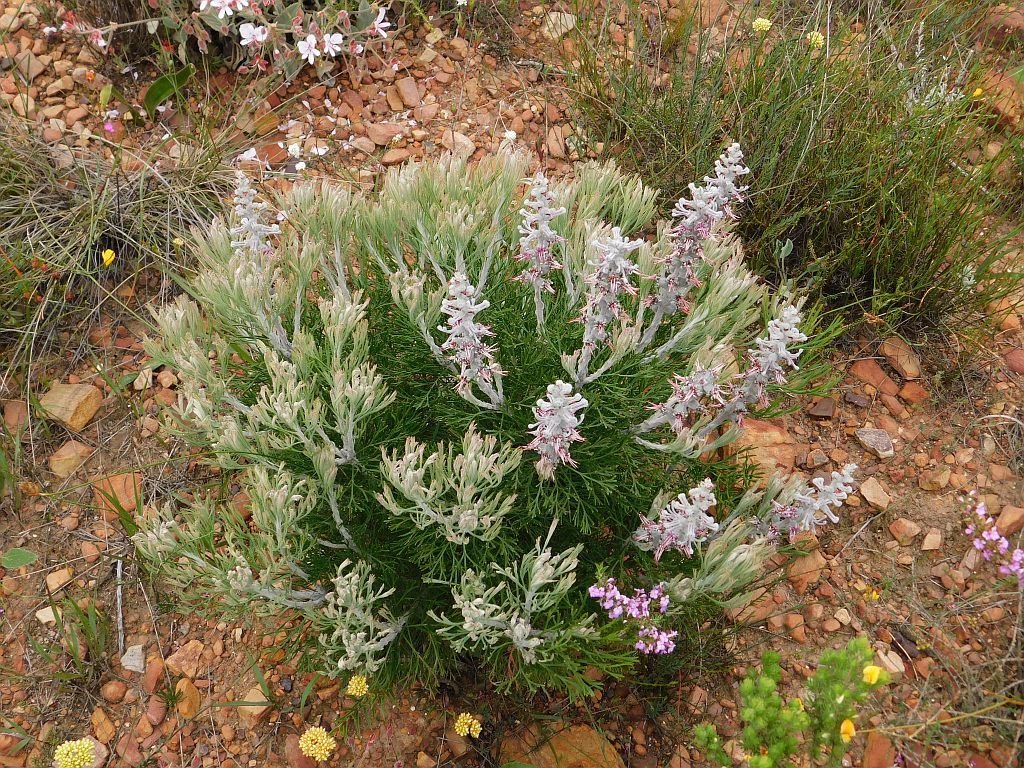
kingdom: Plantae
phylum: Tracheophyta
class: Magnoliopsida
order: Proteales
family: Proteaceae
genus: Paranomus
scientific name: Paranomus dispersus
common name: Long-head sceptre
